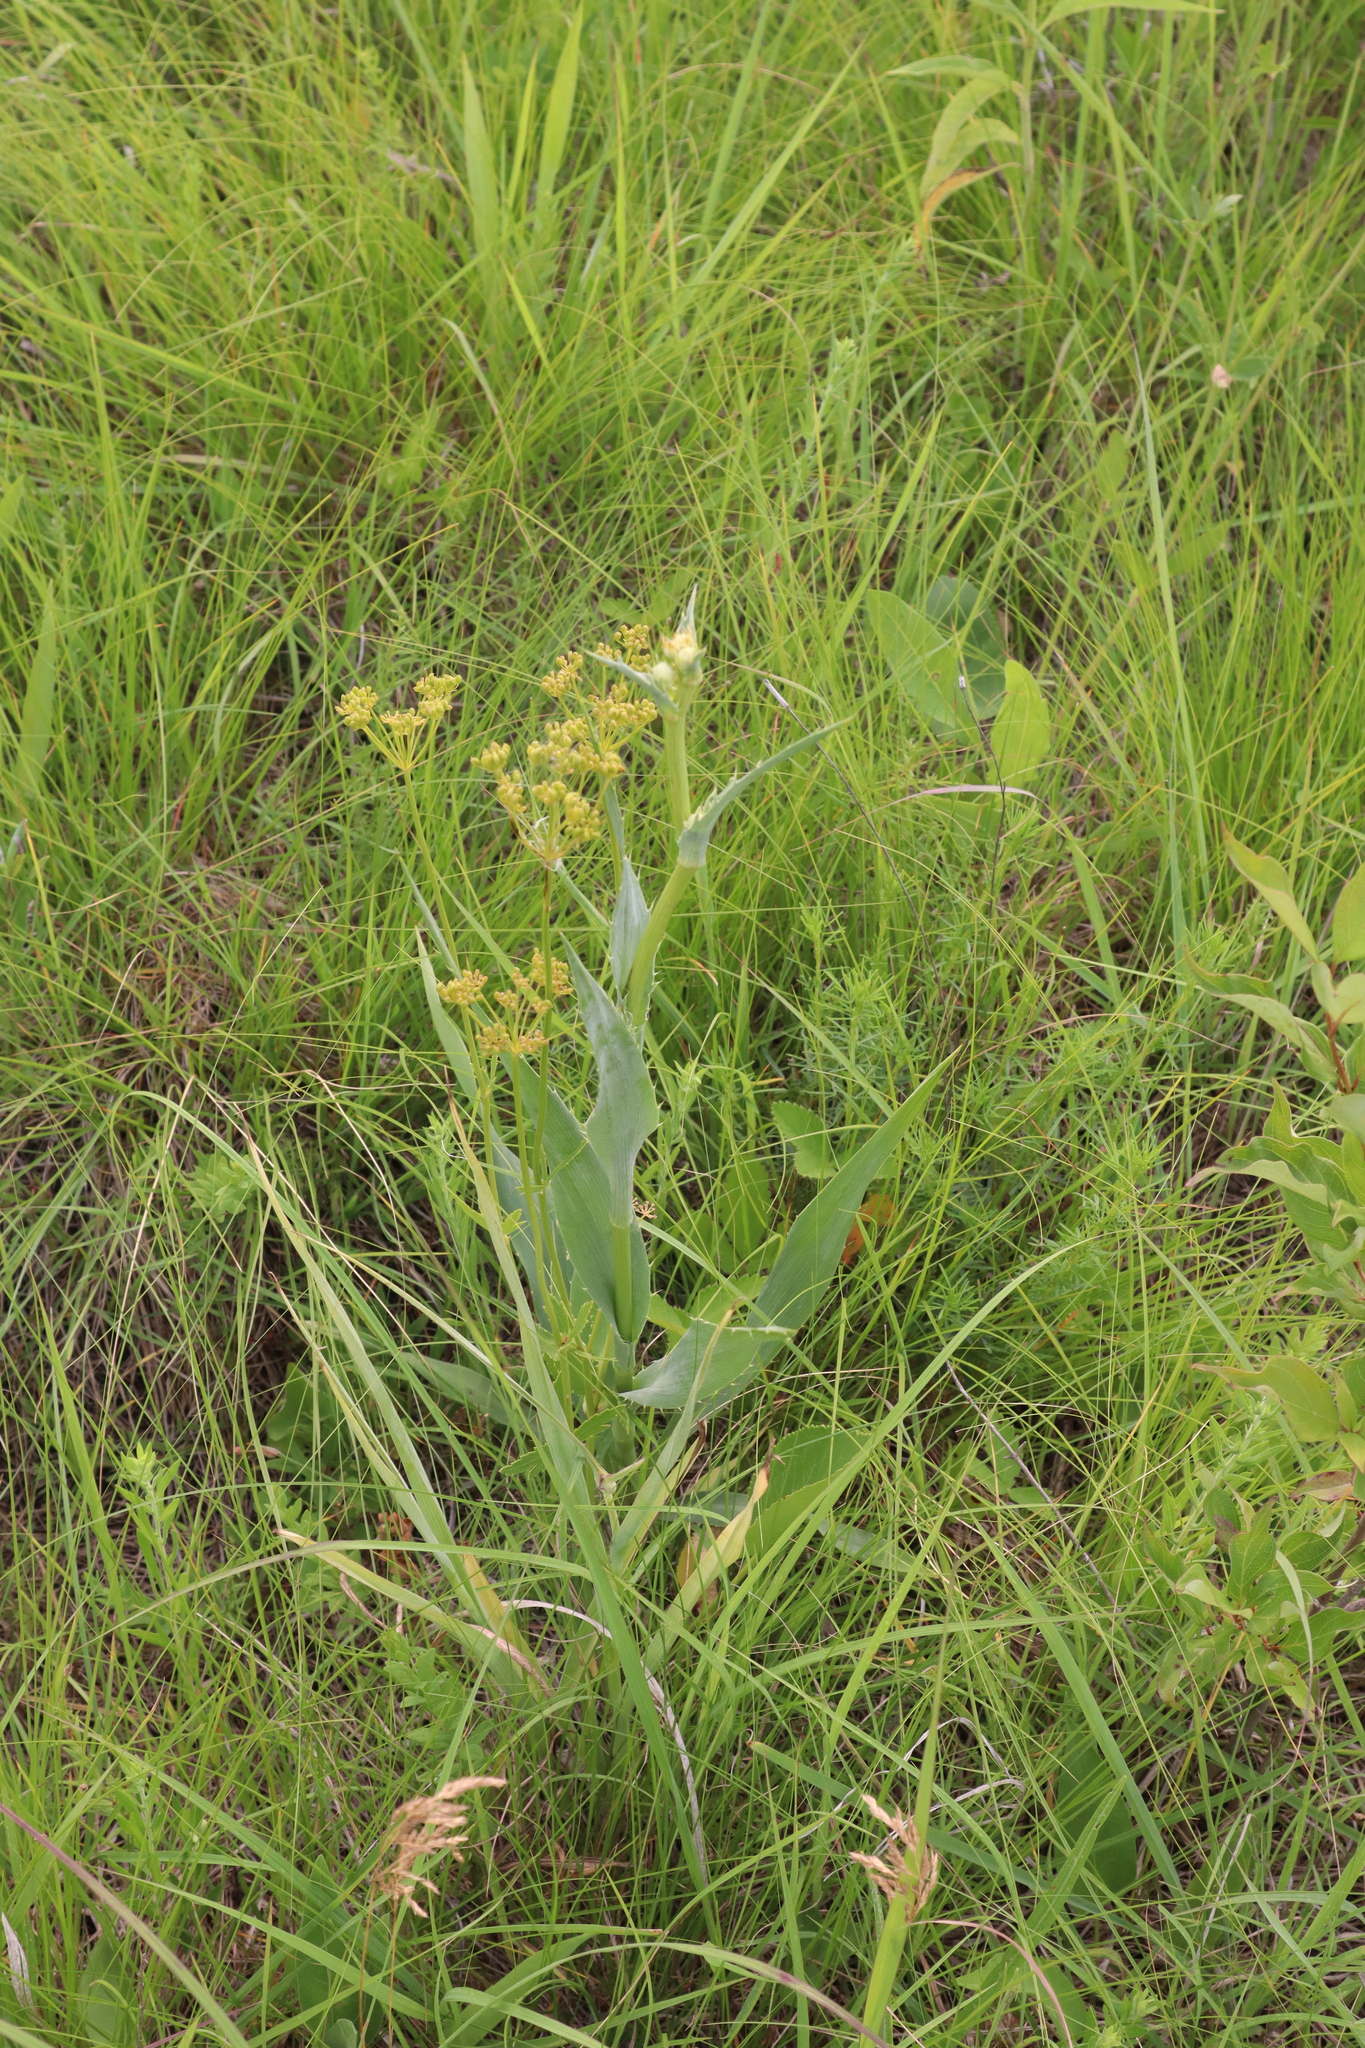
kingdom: Plantae
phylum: Tracheophyta
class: Magnoliopsida
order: Apiales
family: Apiaceae
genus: Eryngium
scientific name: Eryngium yuccifolium
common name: Button eryngo
